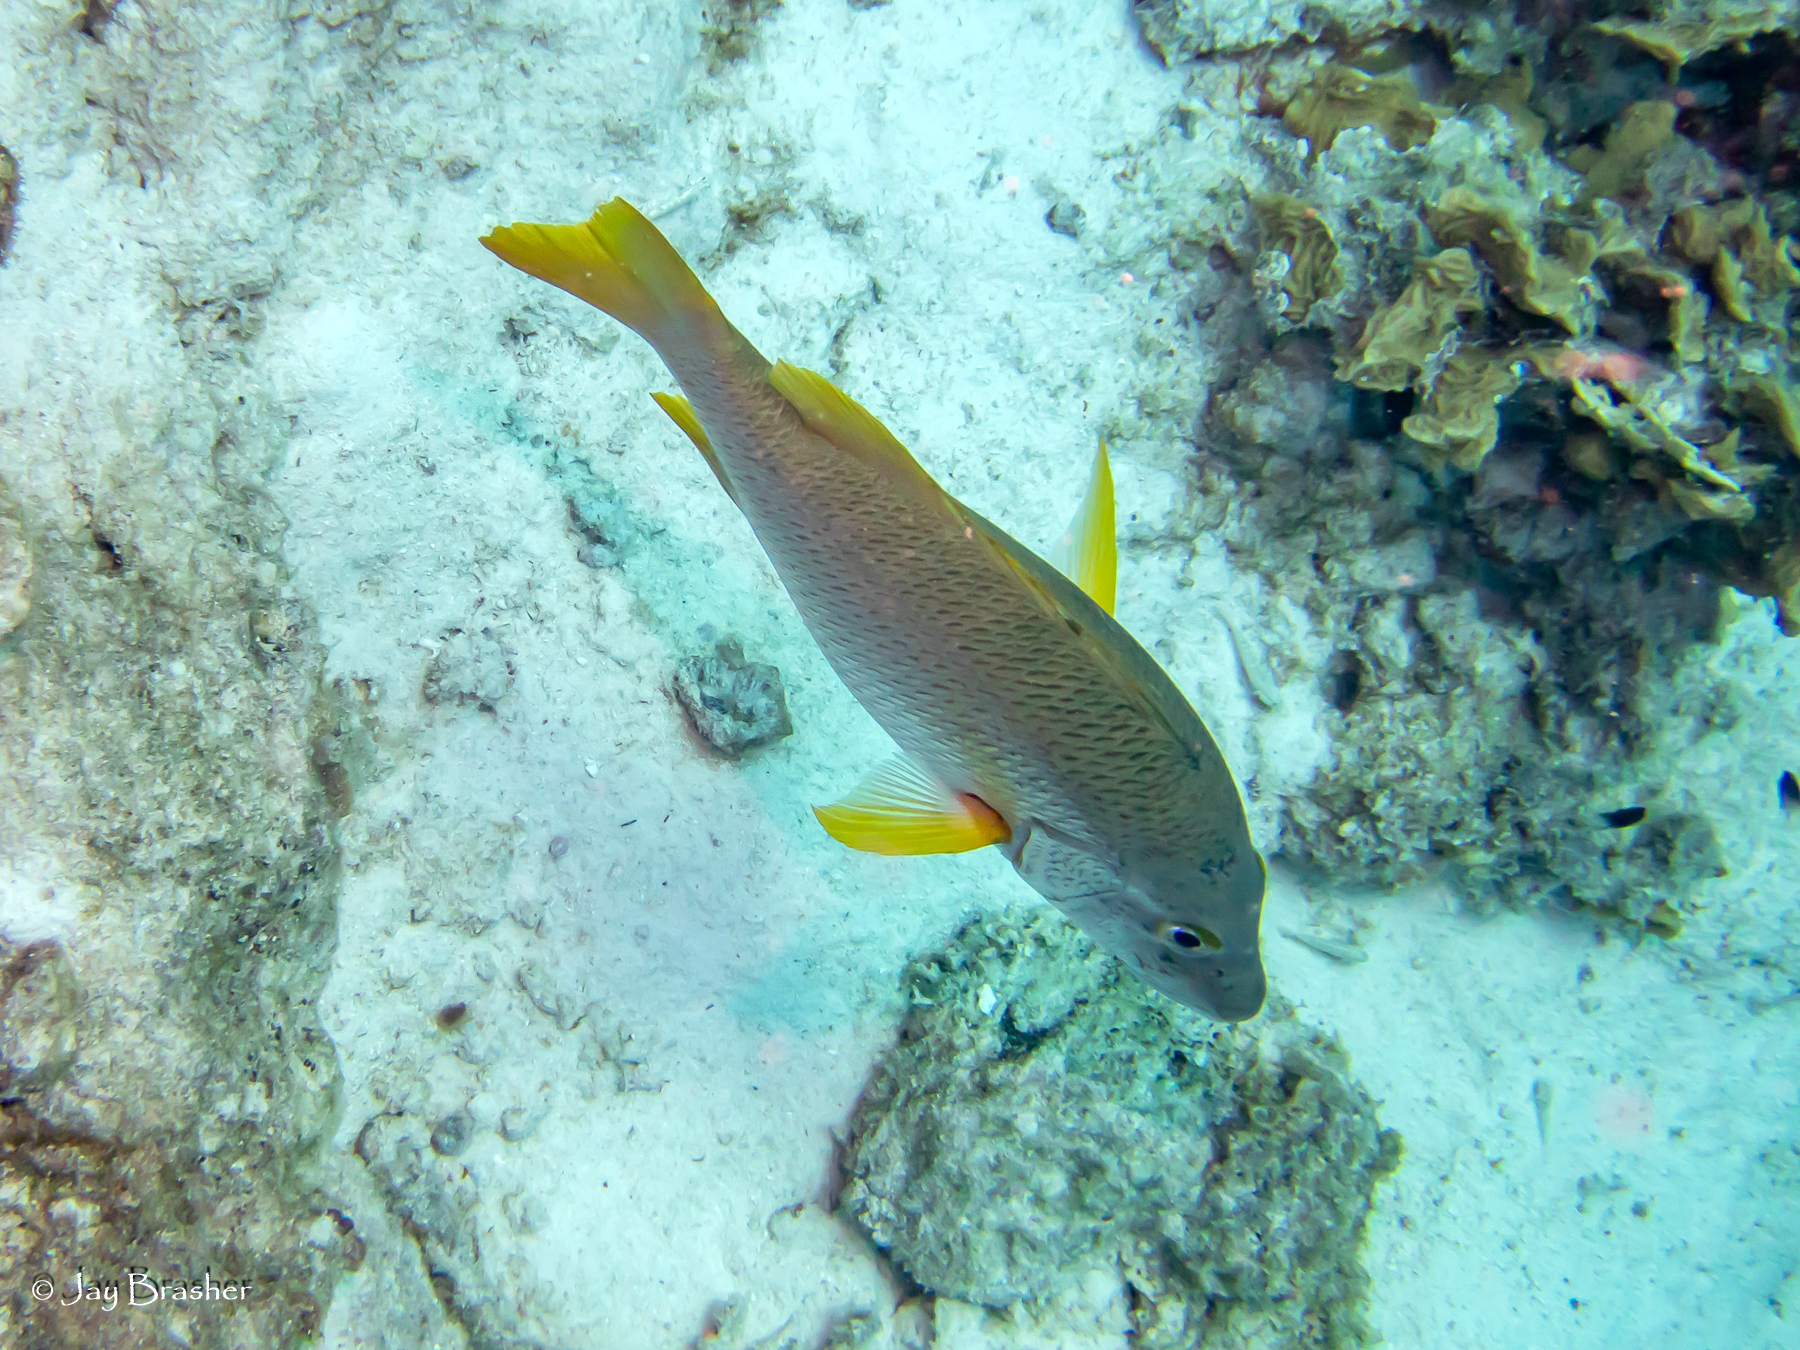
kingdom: Animalia
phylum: Chordata
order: Perciformes
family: Lutjanidae
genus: Lutjanus
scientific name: Lutjanus apodus
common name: Schoolmaster
